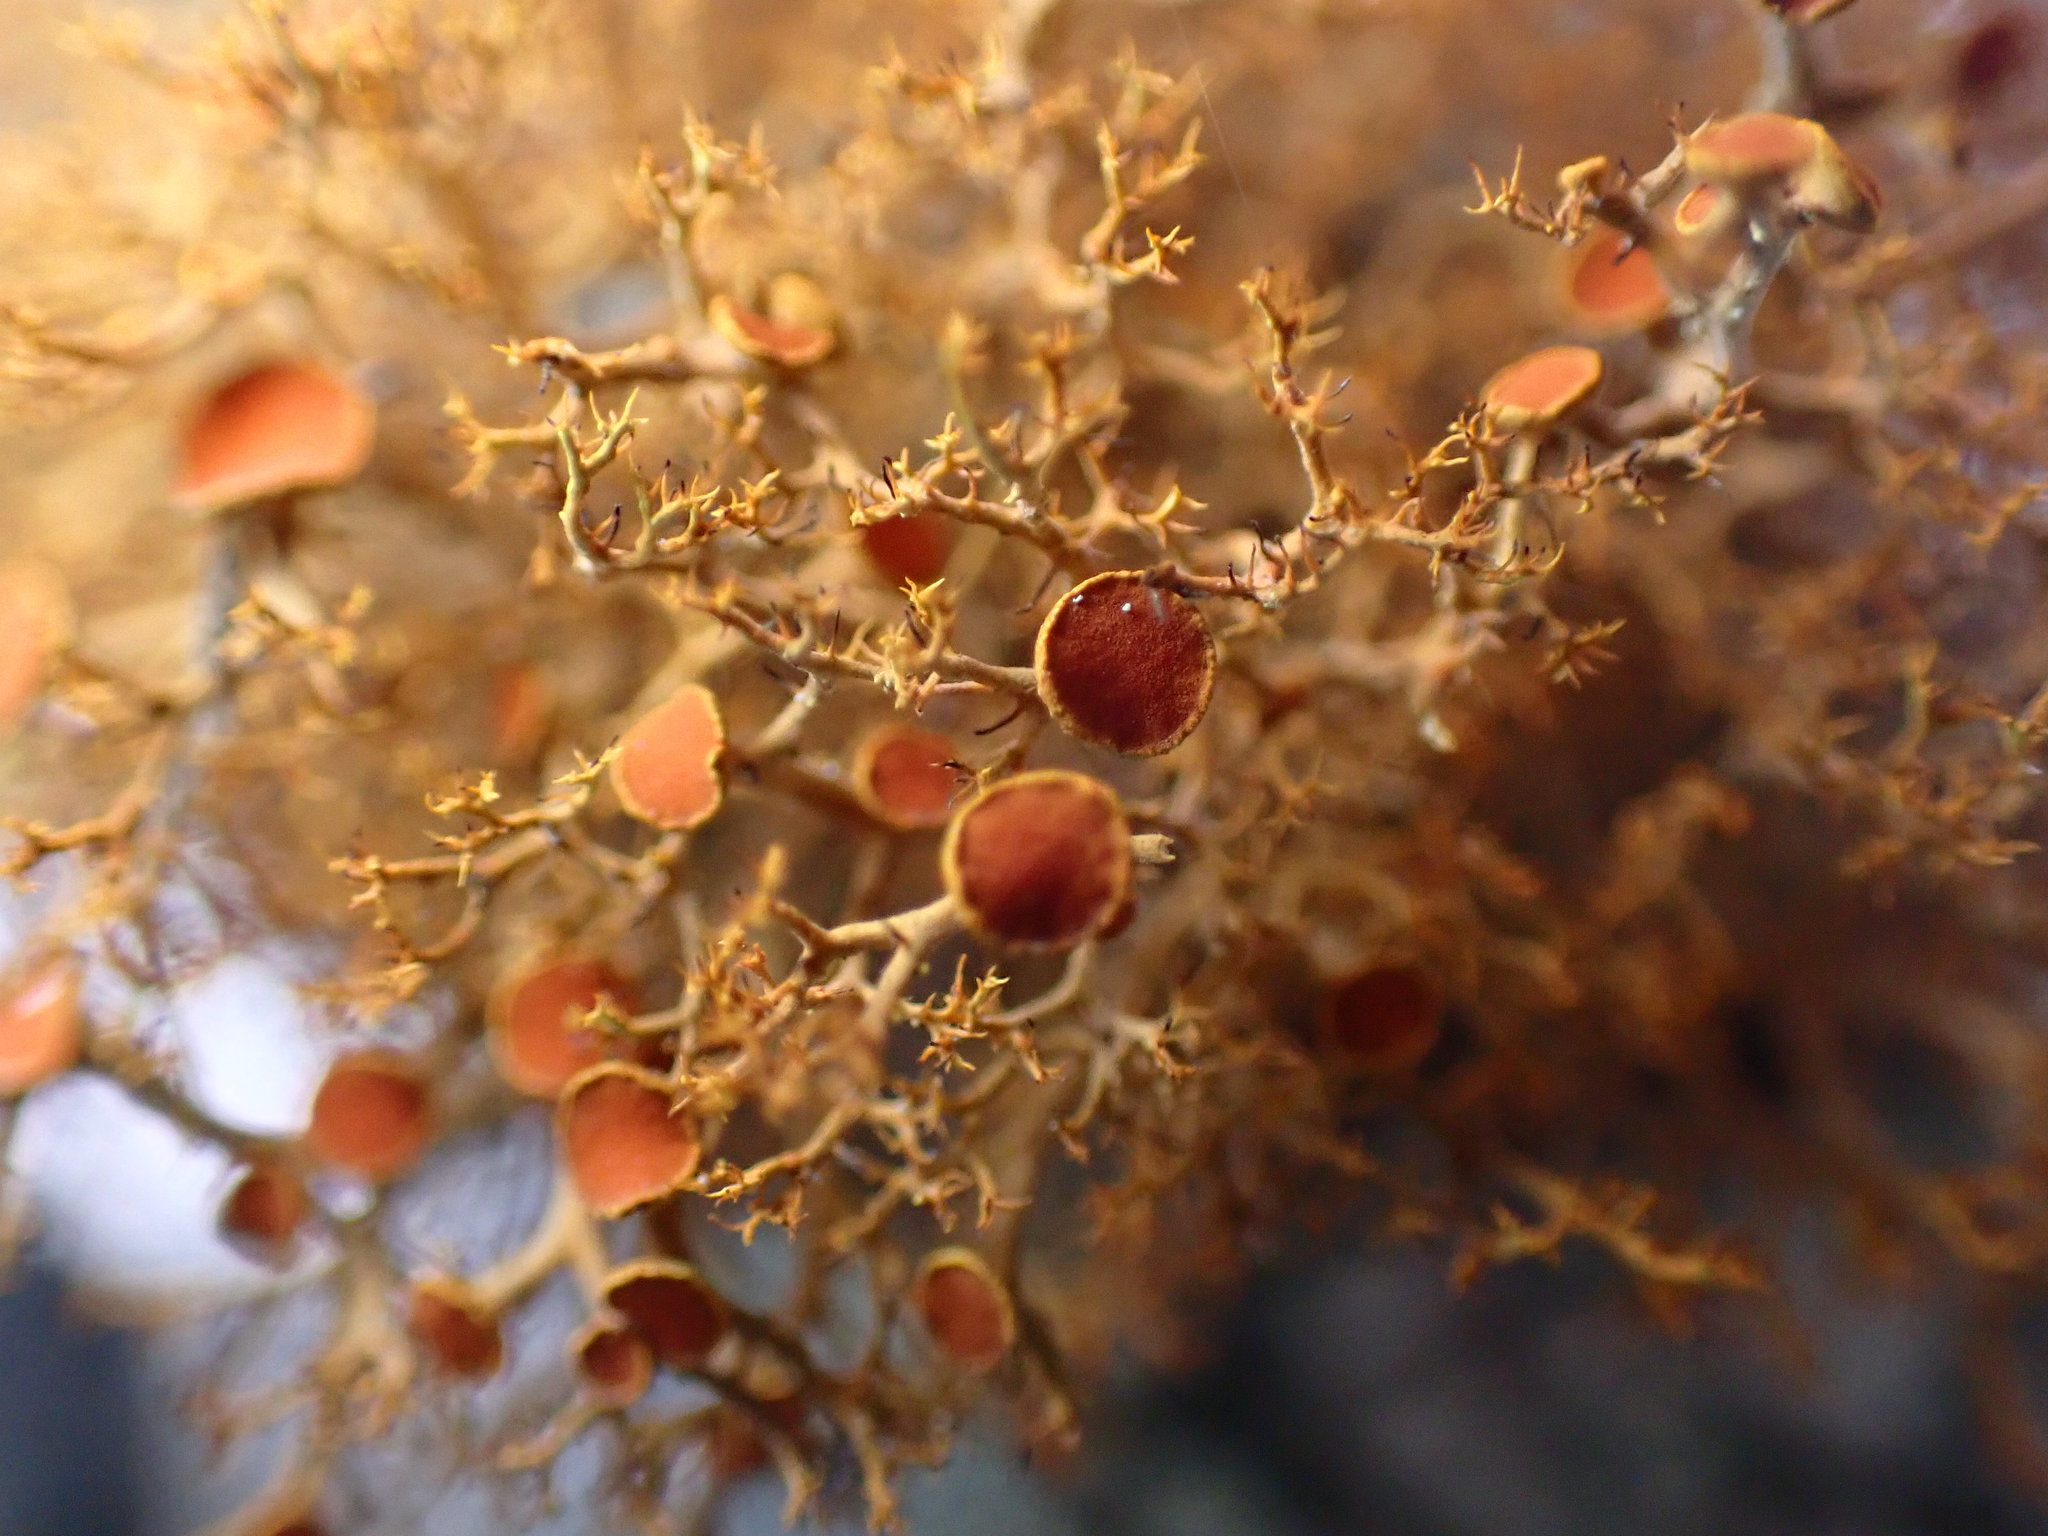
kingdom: Fungi
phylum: Ascomycota
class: Lecanoromycetes
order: Teloschistales
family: Teloschistaceae
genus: Teloschistes
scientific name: Teloschistes flavicans
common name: Golden hair-lichen
